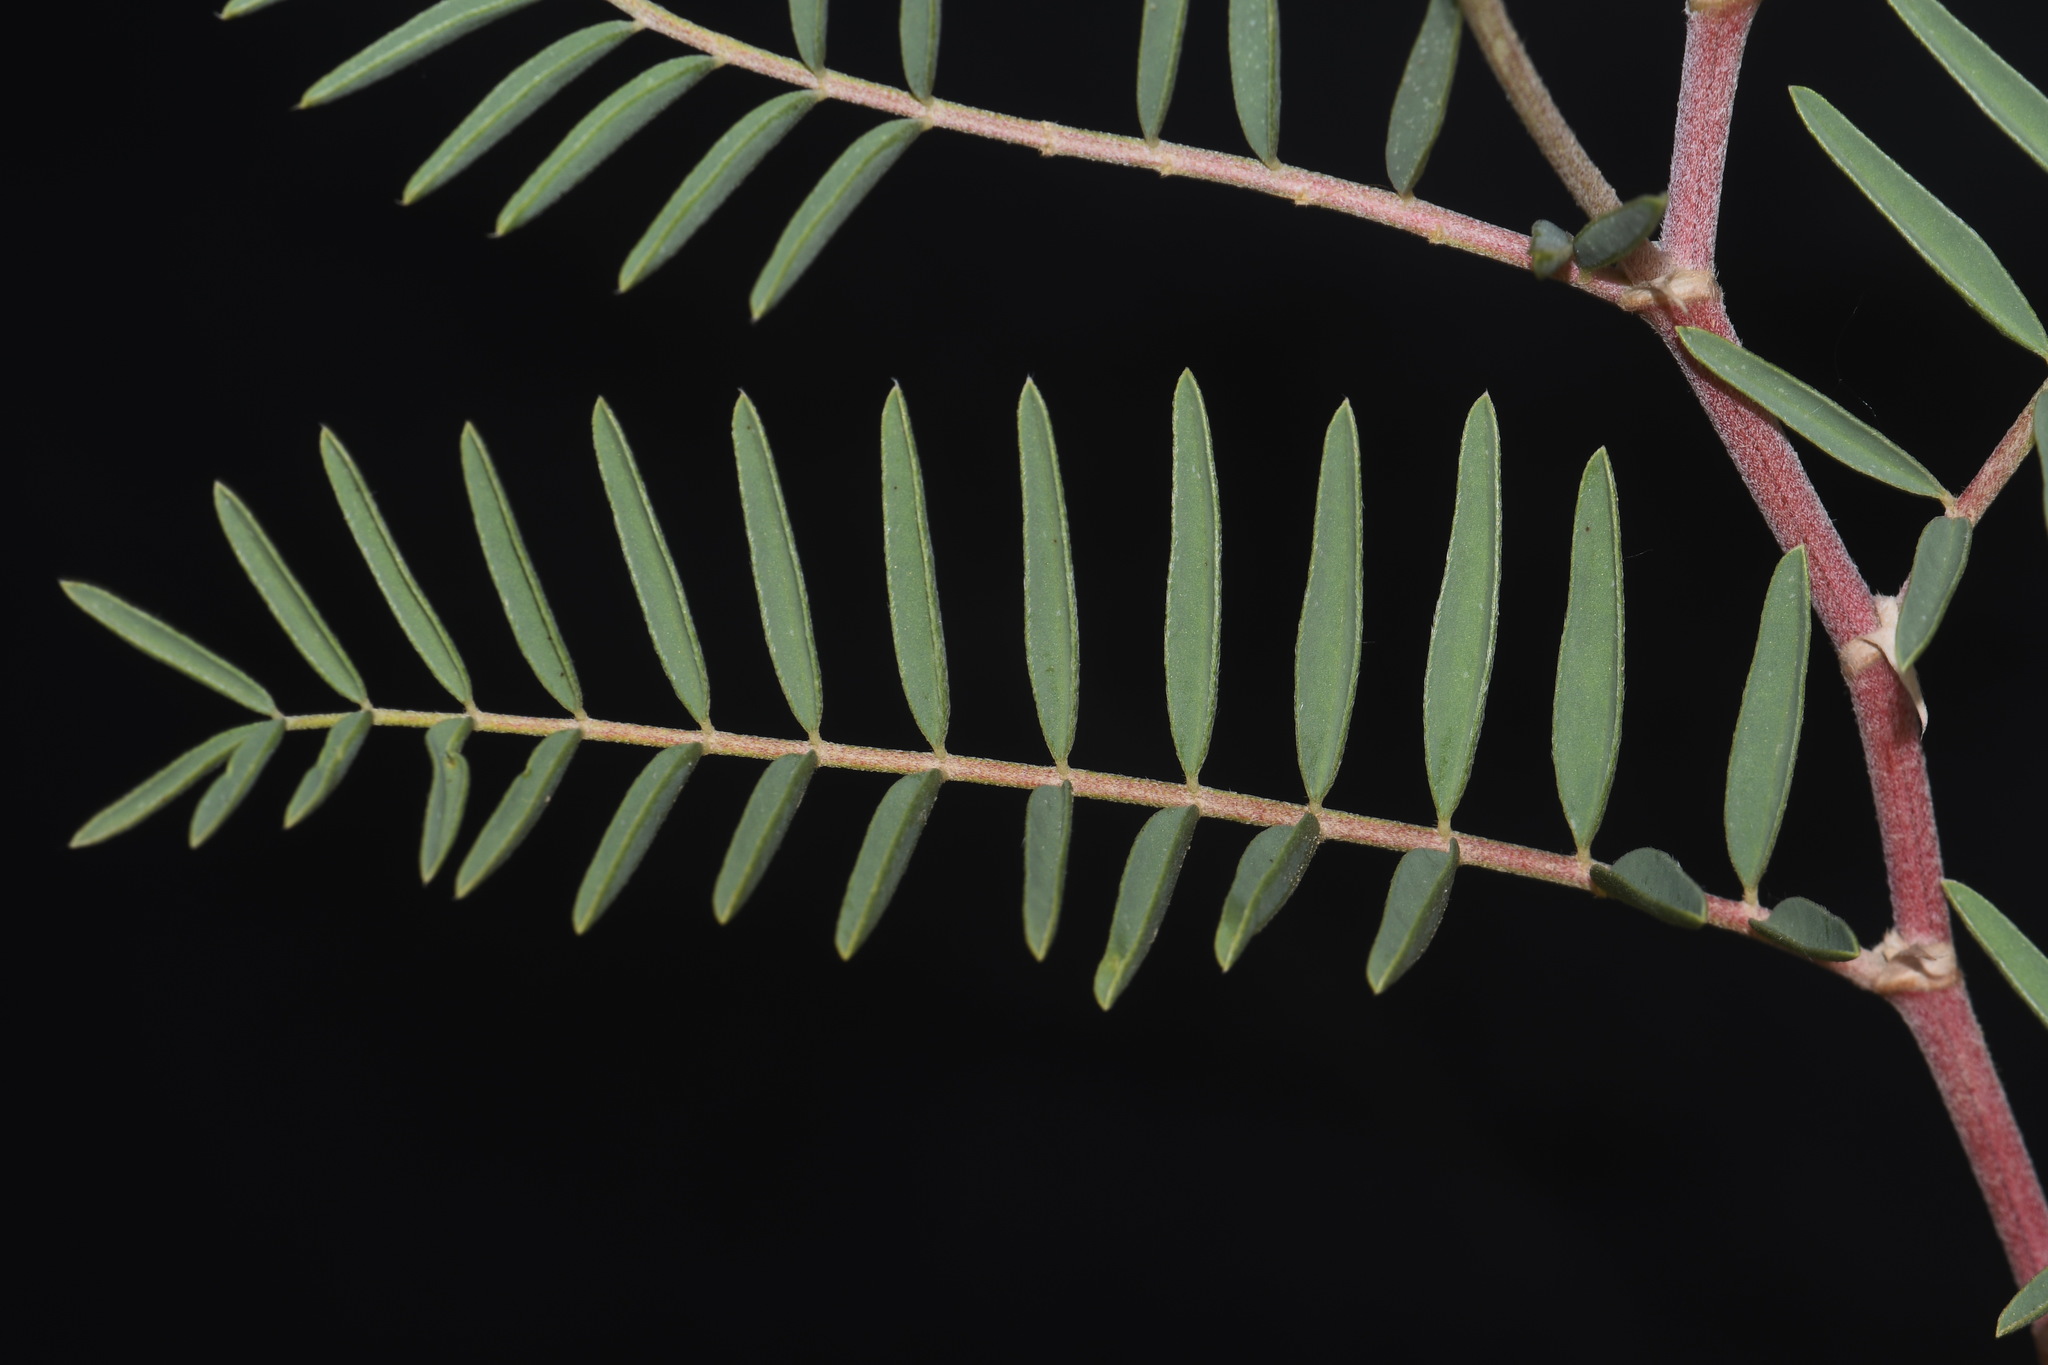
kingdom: Plantae
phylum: Tracheophyta
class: Magnoliopsida
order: Fabales
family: Fabaceae
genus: Astragalus
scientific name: Astragalus racemosus
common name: Alkali milk-vetch
